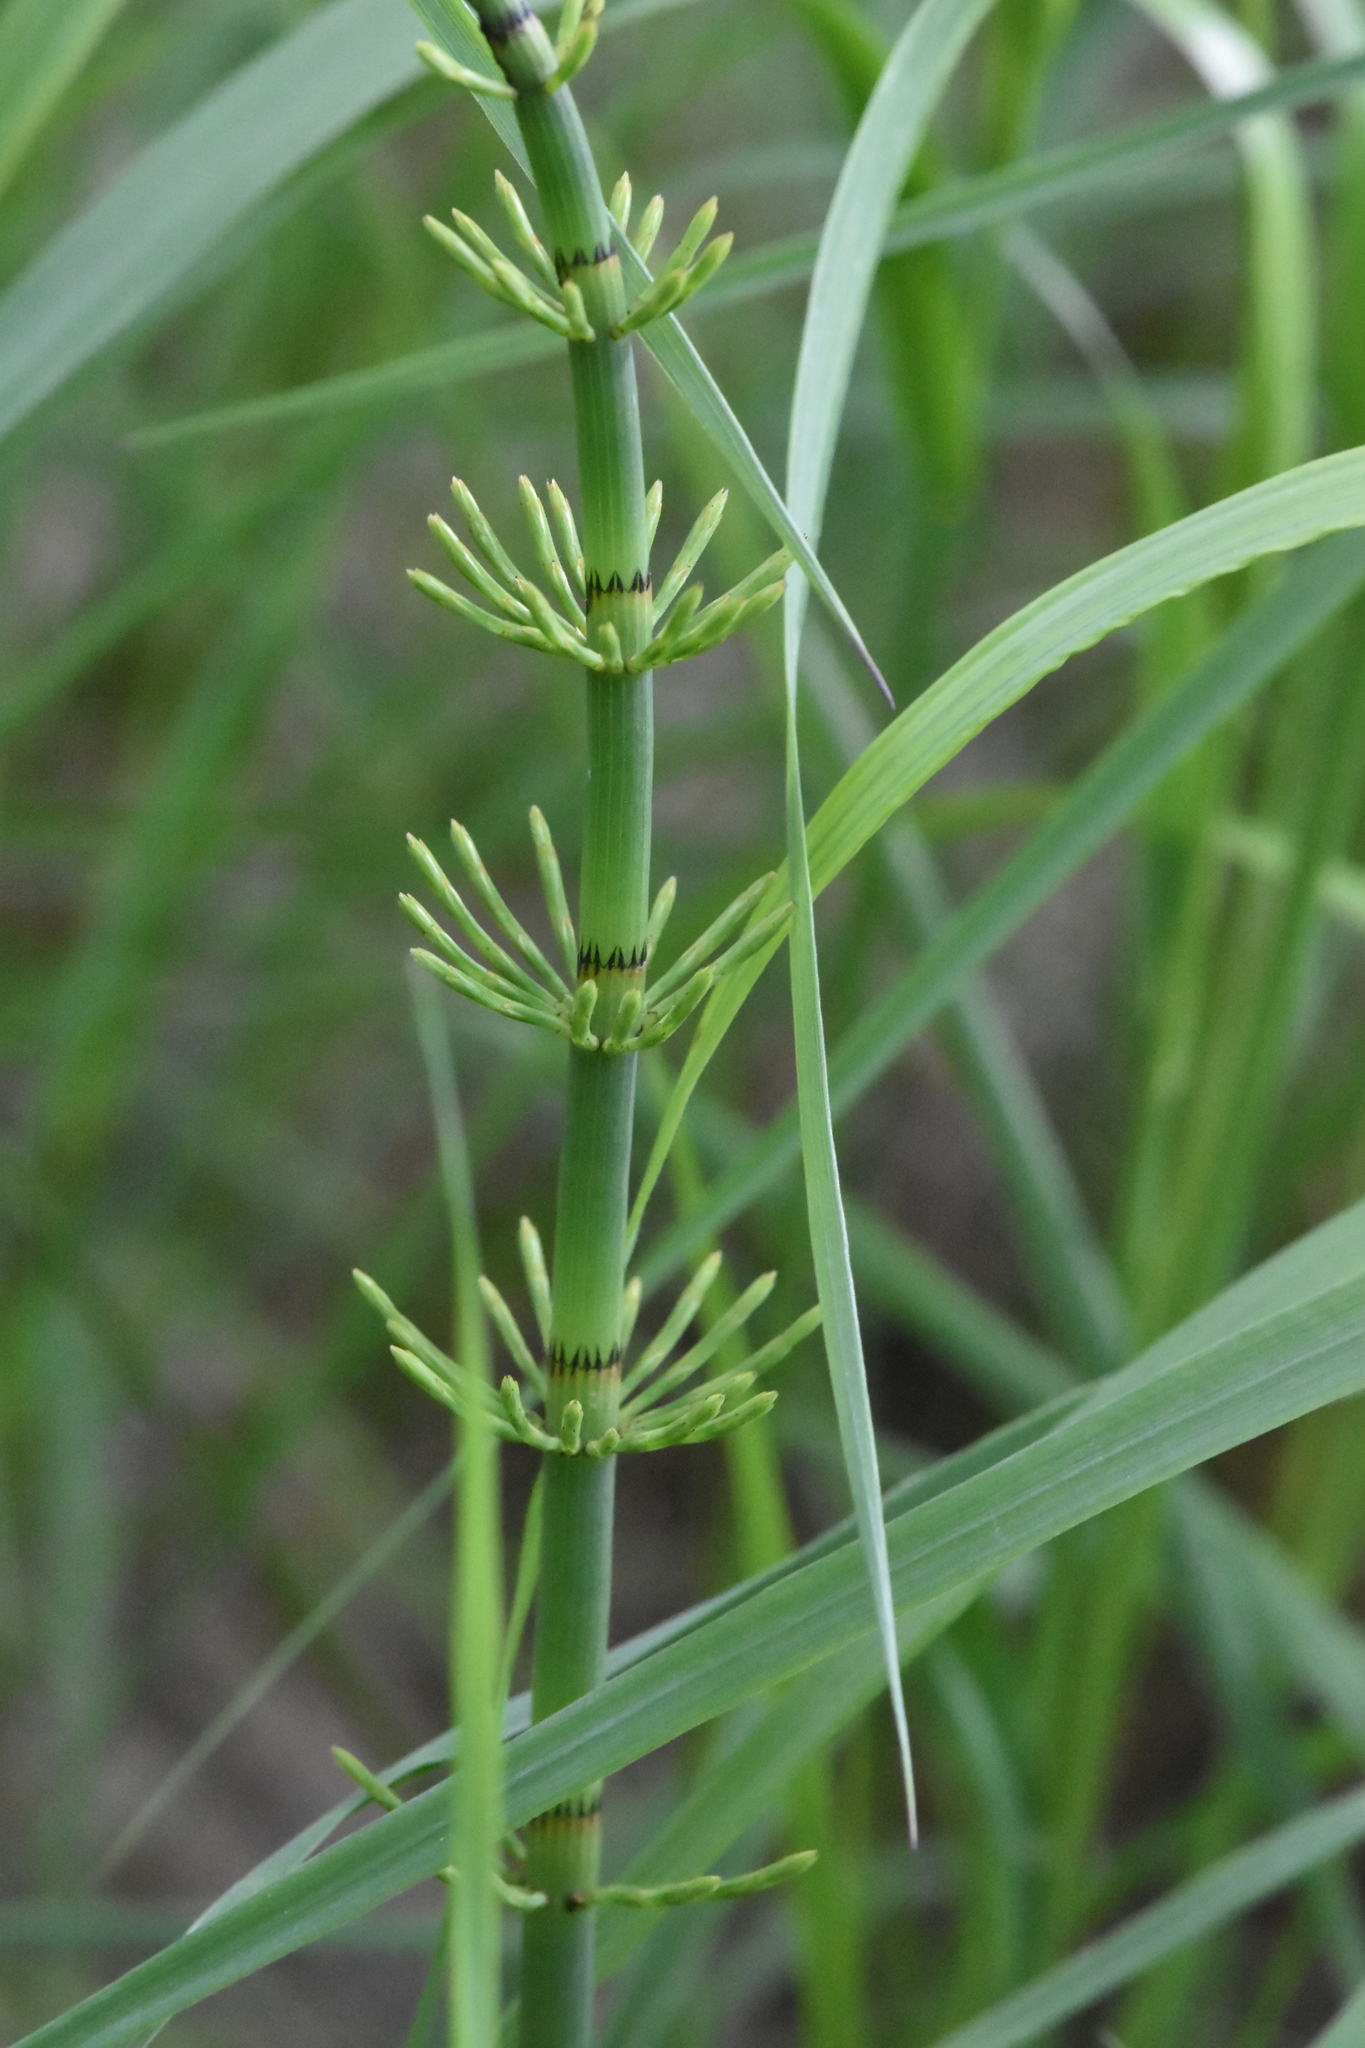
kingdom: Plantae
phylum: Tracheophyta
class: Polypodiopsida
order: Equisetales
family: Equisetaceae
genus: Equisetum
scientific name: Equisetum fluviatile
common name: Water horsetail
